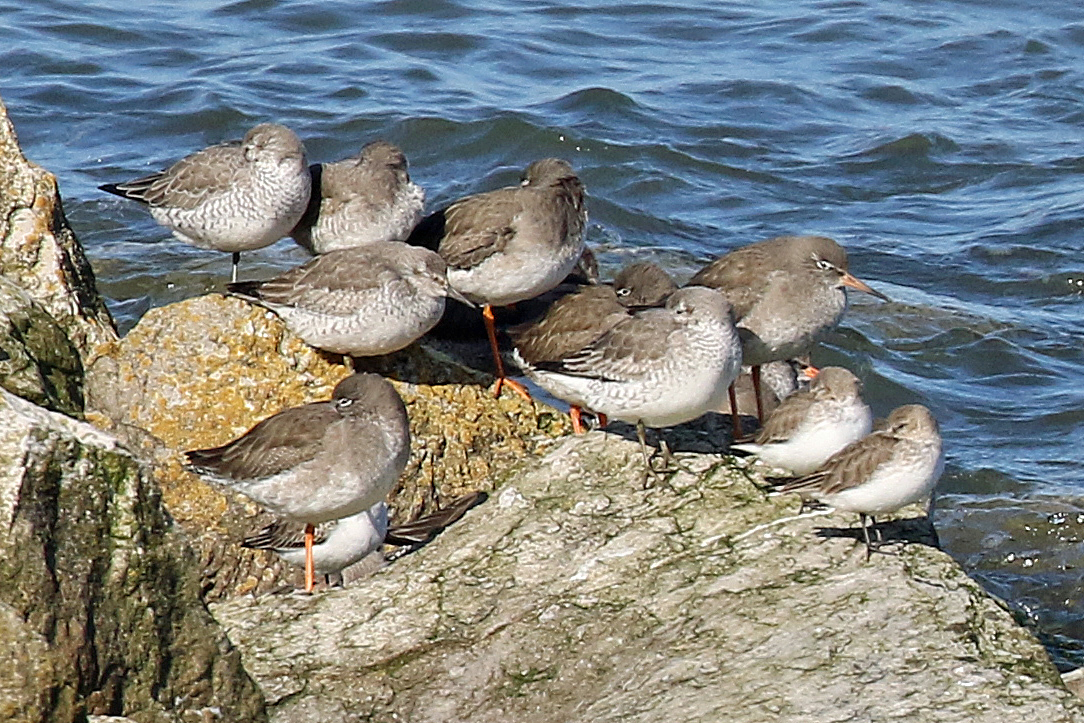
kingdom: Animalia
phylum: Chordata
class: Aves
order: Charadriiformes
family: Scolopacidae
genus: Calidris
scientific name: Calidris canutus
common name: Red knot
